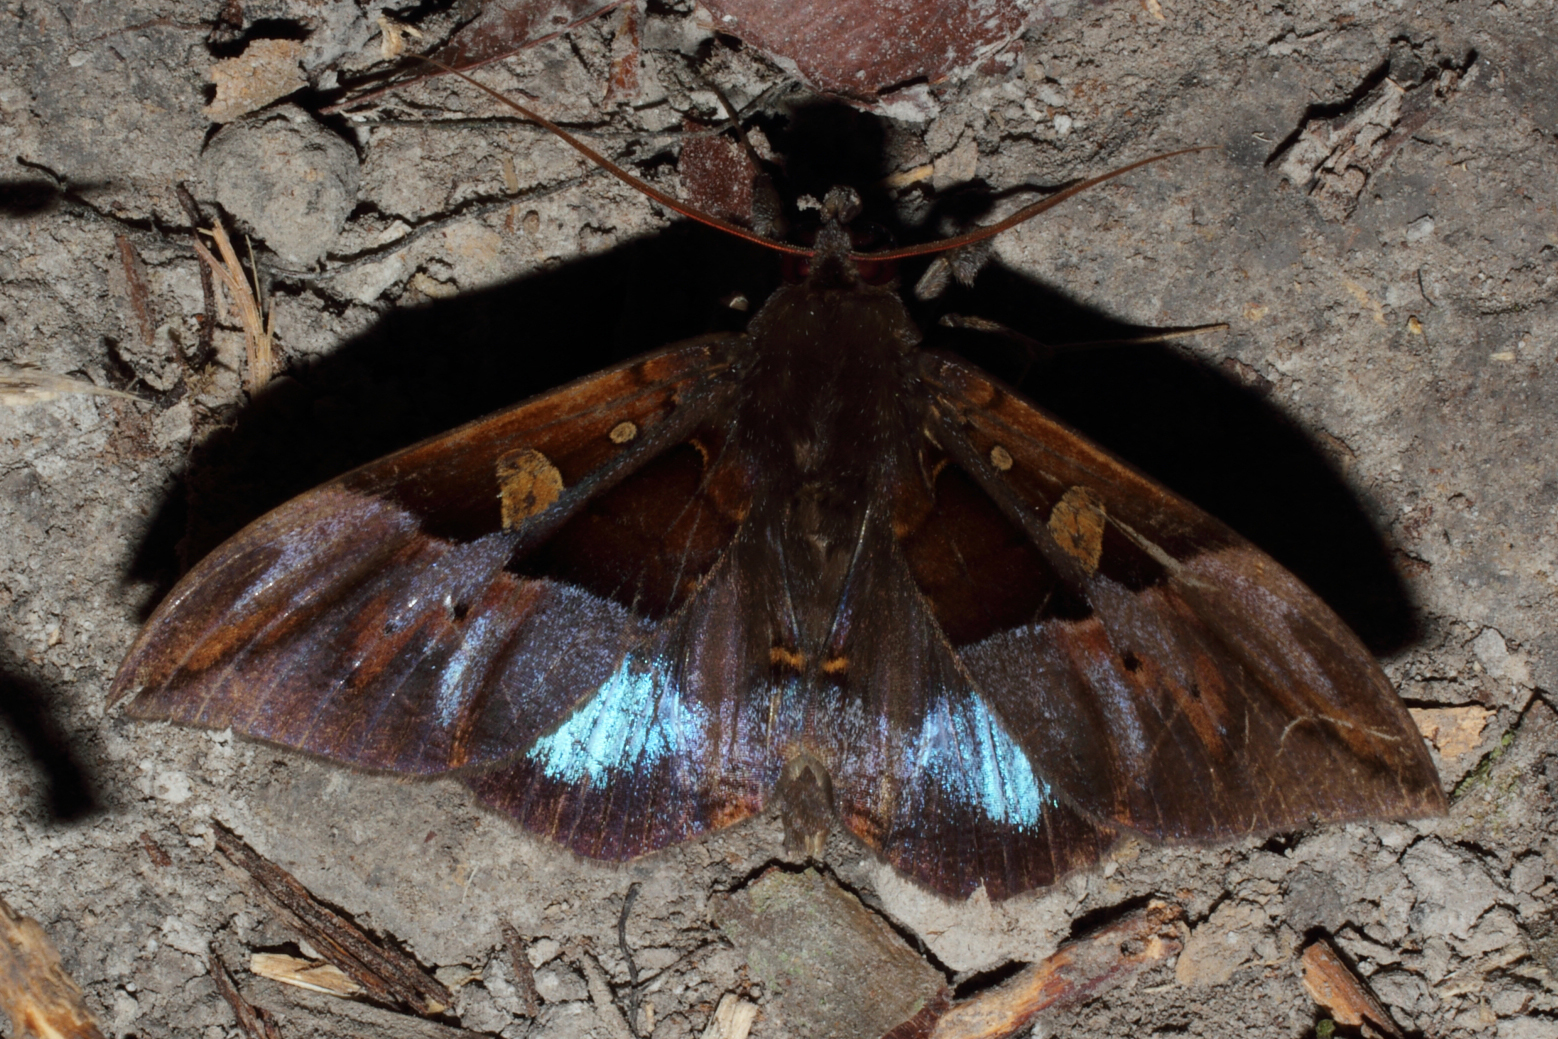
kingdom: Animalia
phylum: Arthropoda
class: Insecta
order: Lepidoptera
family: Erebidae
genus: Ischyja
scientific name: Ischyja paraplesius
